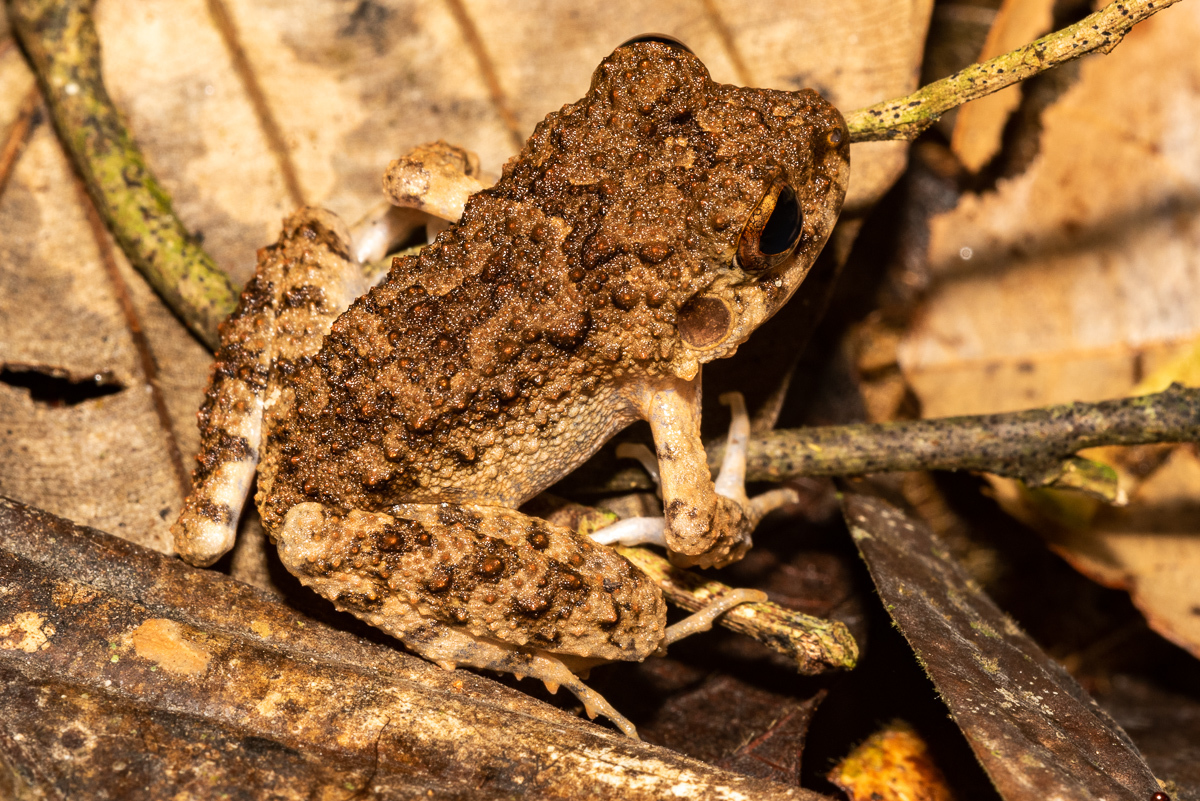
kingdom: Animalia
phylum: Chordata
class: Amphibia
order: Anura
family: Craugastoridae
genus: Oreobates
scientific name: Oreobates quixensis
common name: Common big-headed frog
